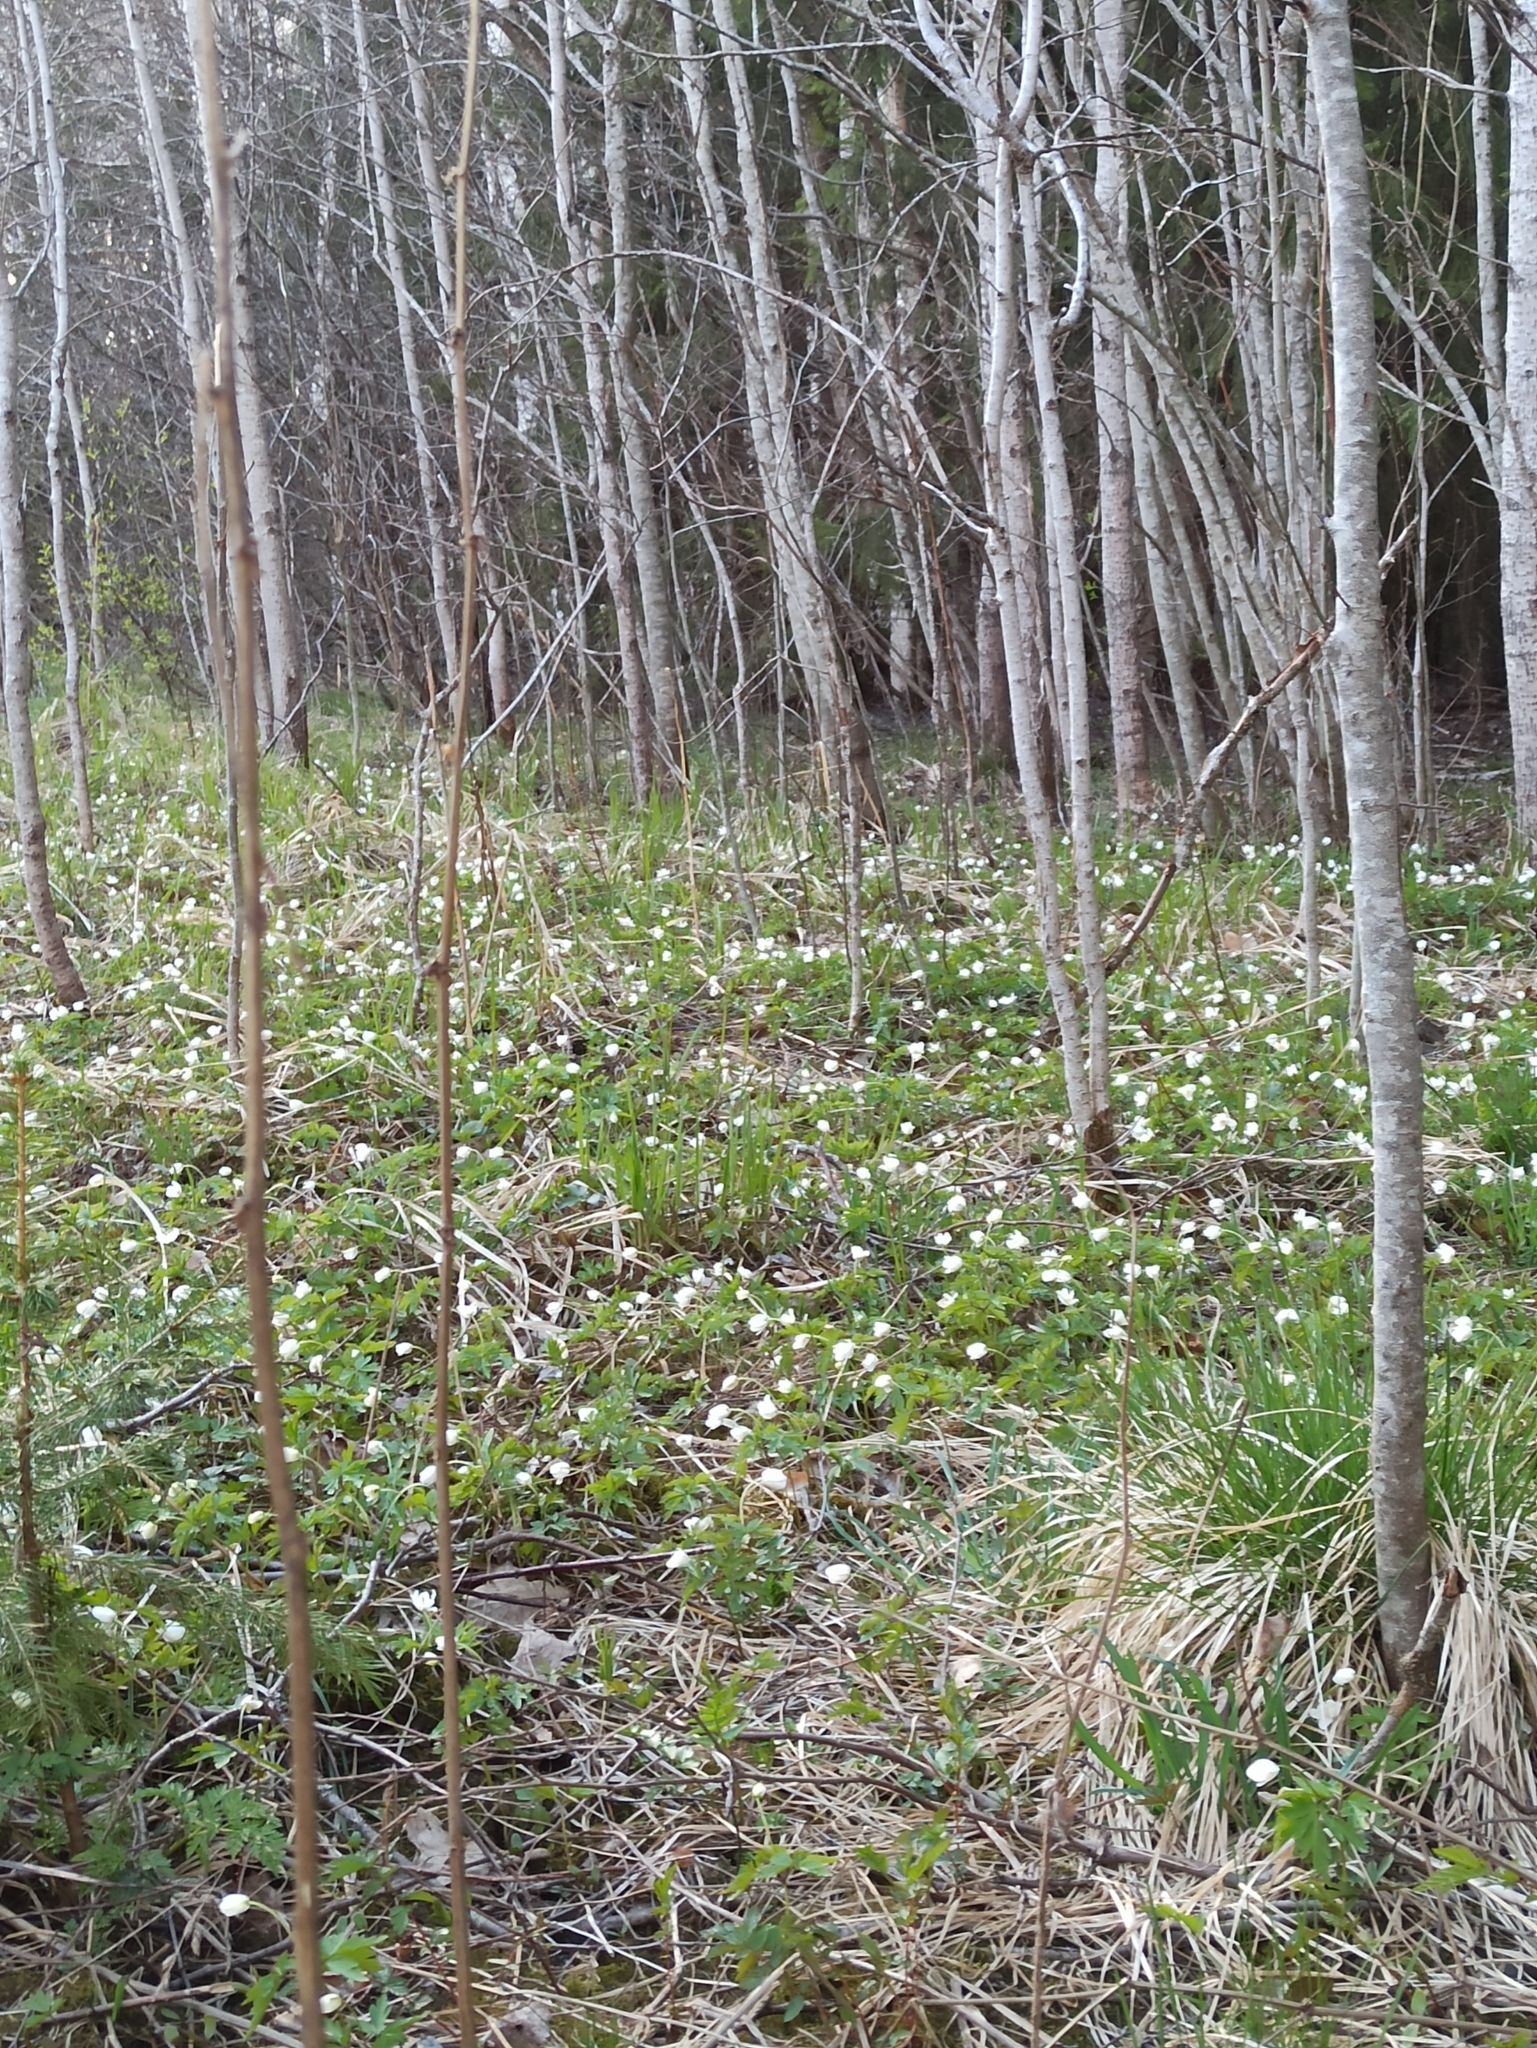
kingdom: Plantae
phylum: Tracheophyta
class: Magnoliopsida
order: Ranunculales
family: Ranunculaceae
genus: Anemone
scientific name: Anemone nemorosa
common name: Wood anemone
